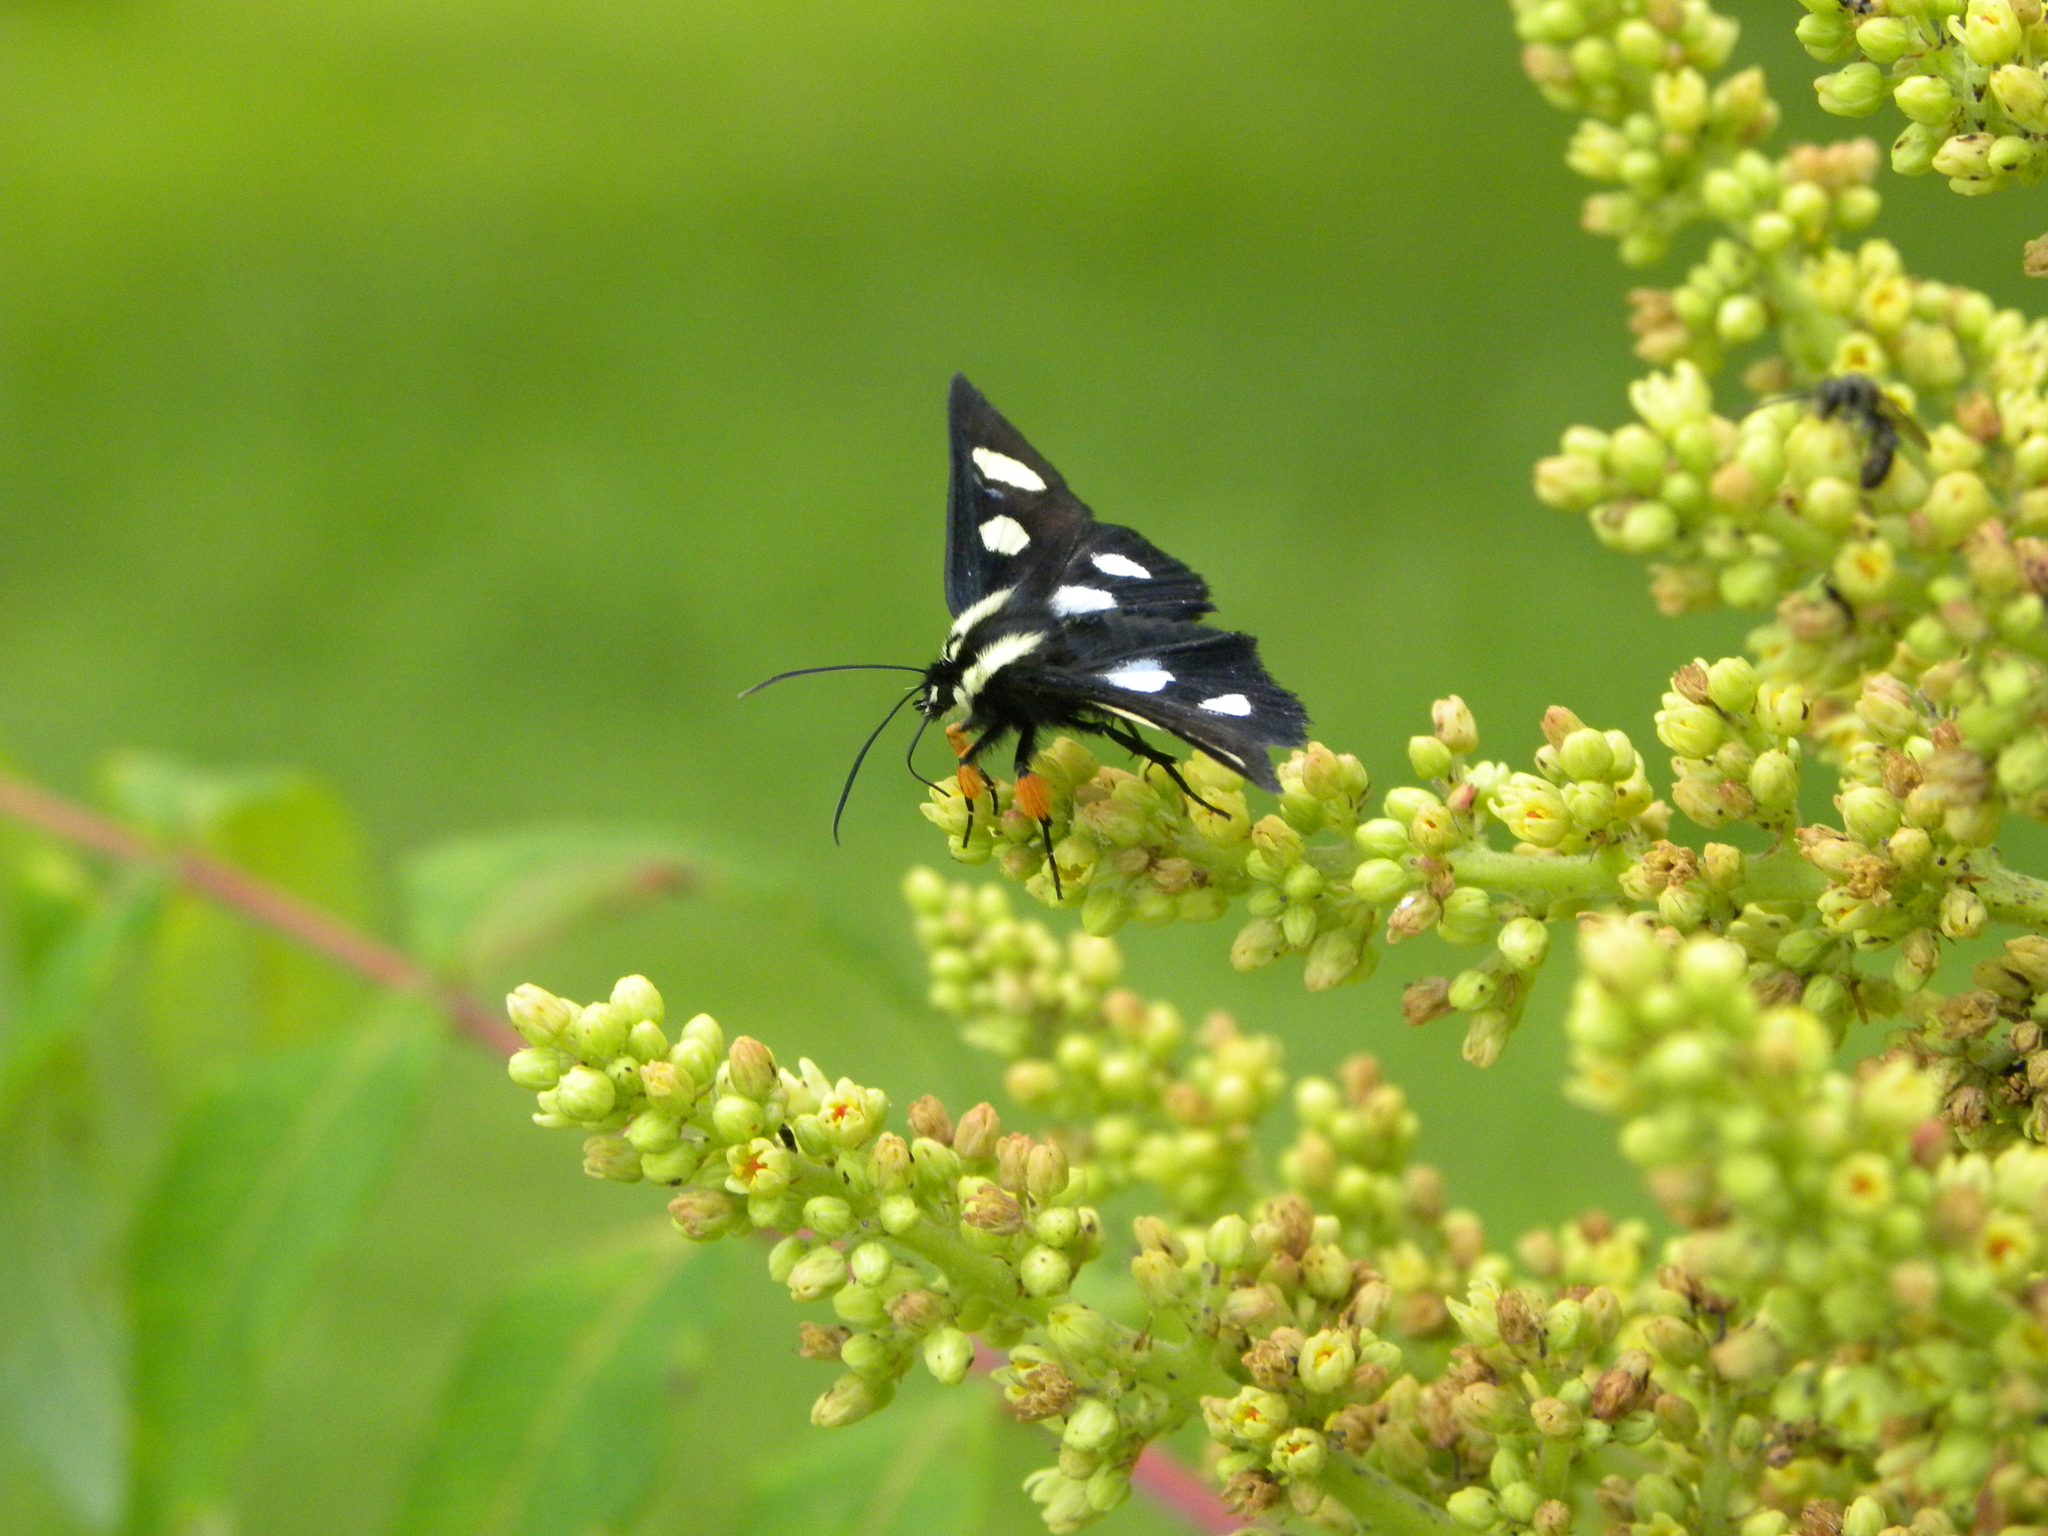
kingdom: Animalia
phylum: Arthropoda
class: Insecta
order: Lepidoptera
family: Noctuidae
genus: Alypia
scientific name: Alypia octomaculata
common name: Eight-spotted forester
